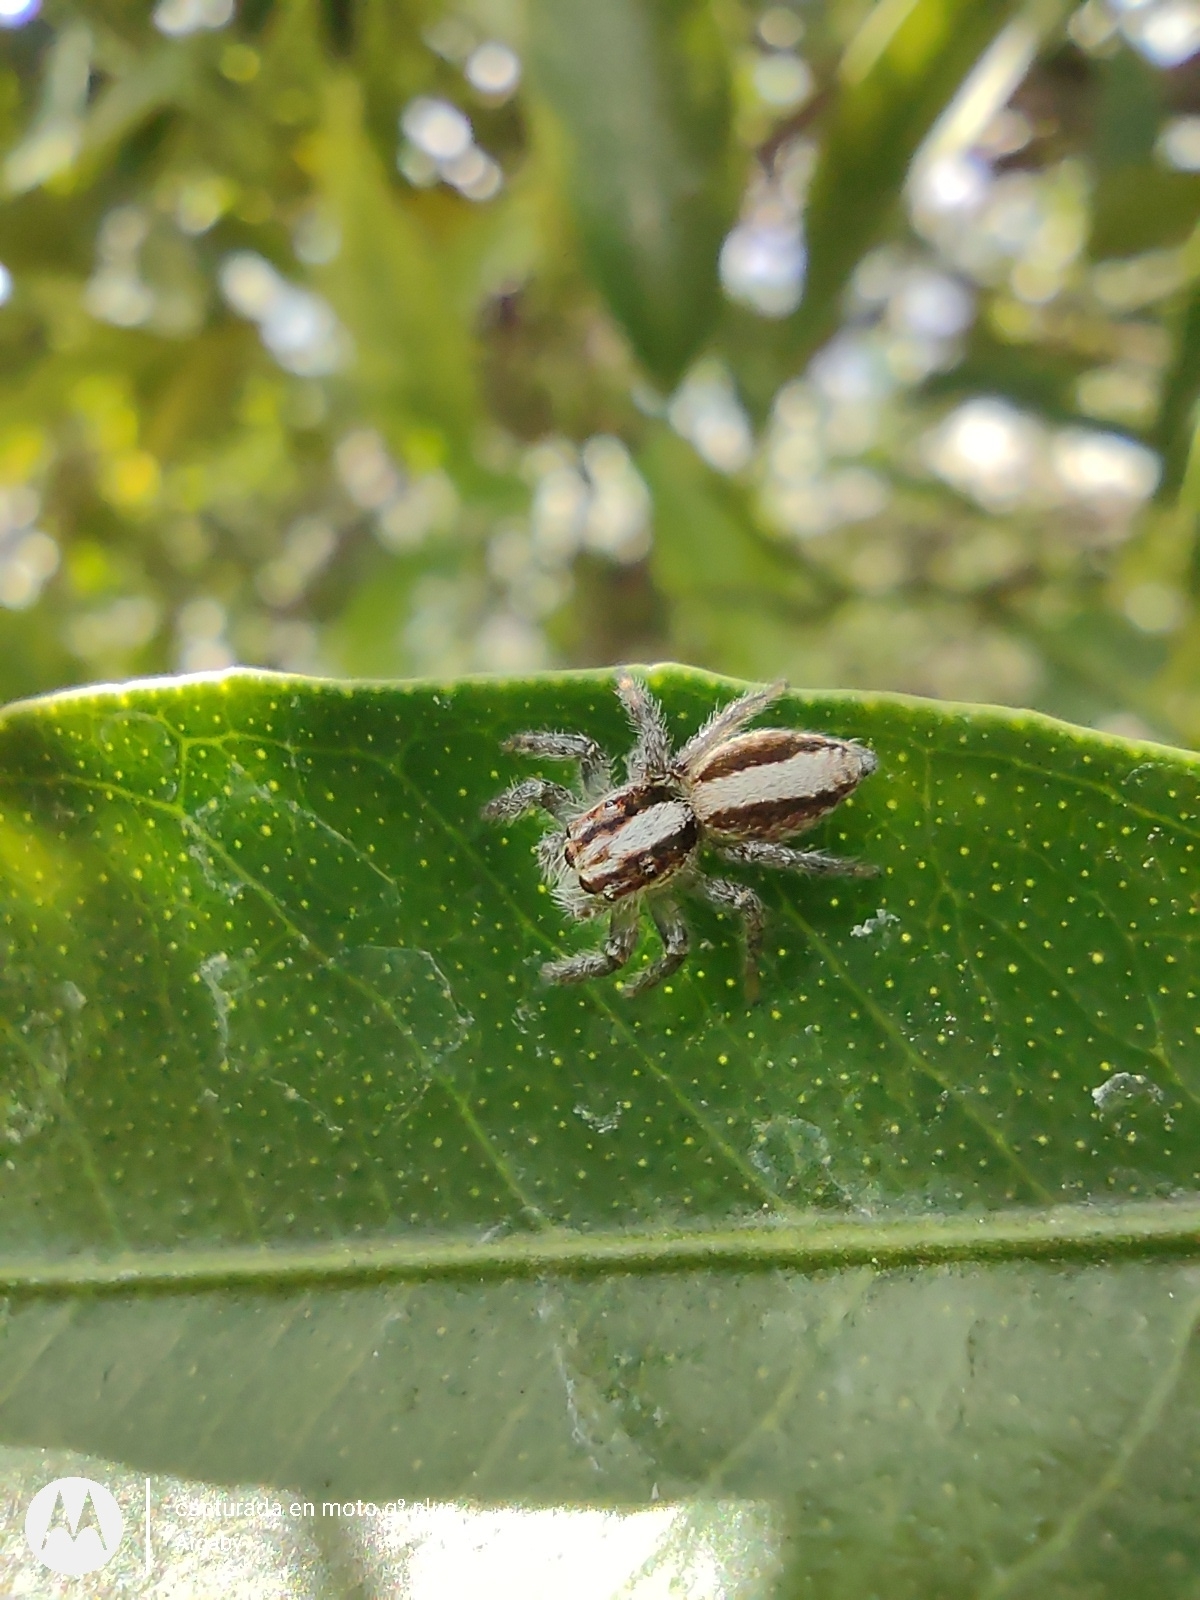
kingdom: Animalia
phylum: Arthropoda
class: Arachnida
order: Araneae
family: Salticidae
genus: Megafreya
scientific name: Megafreya sutrix
